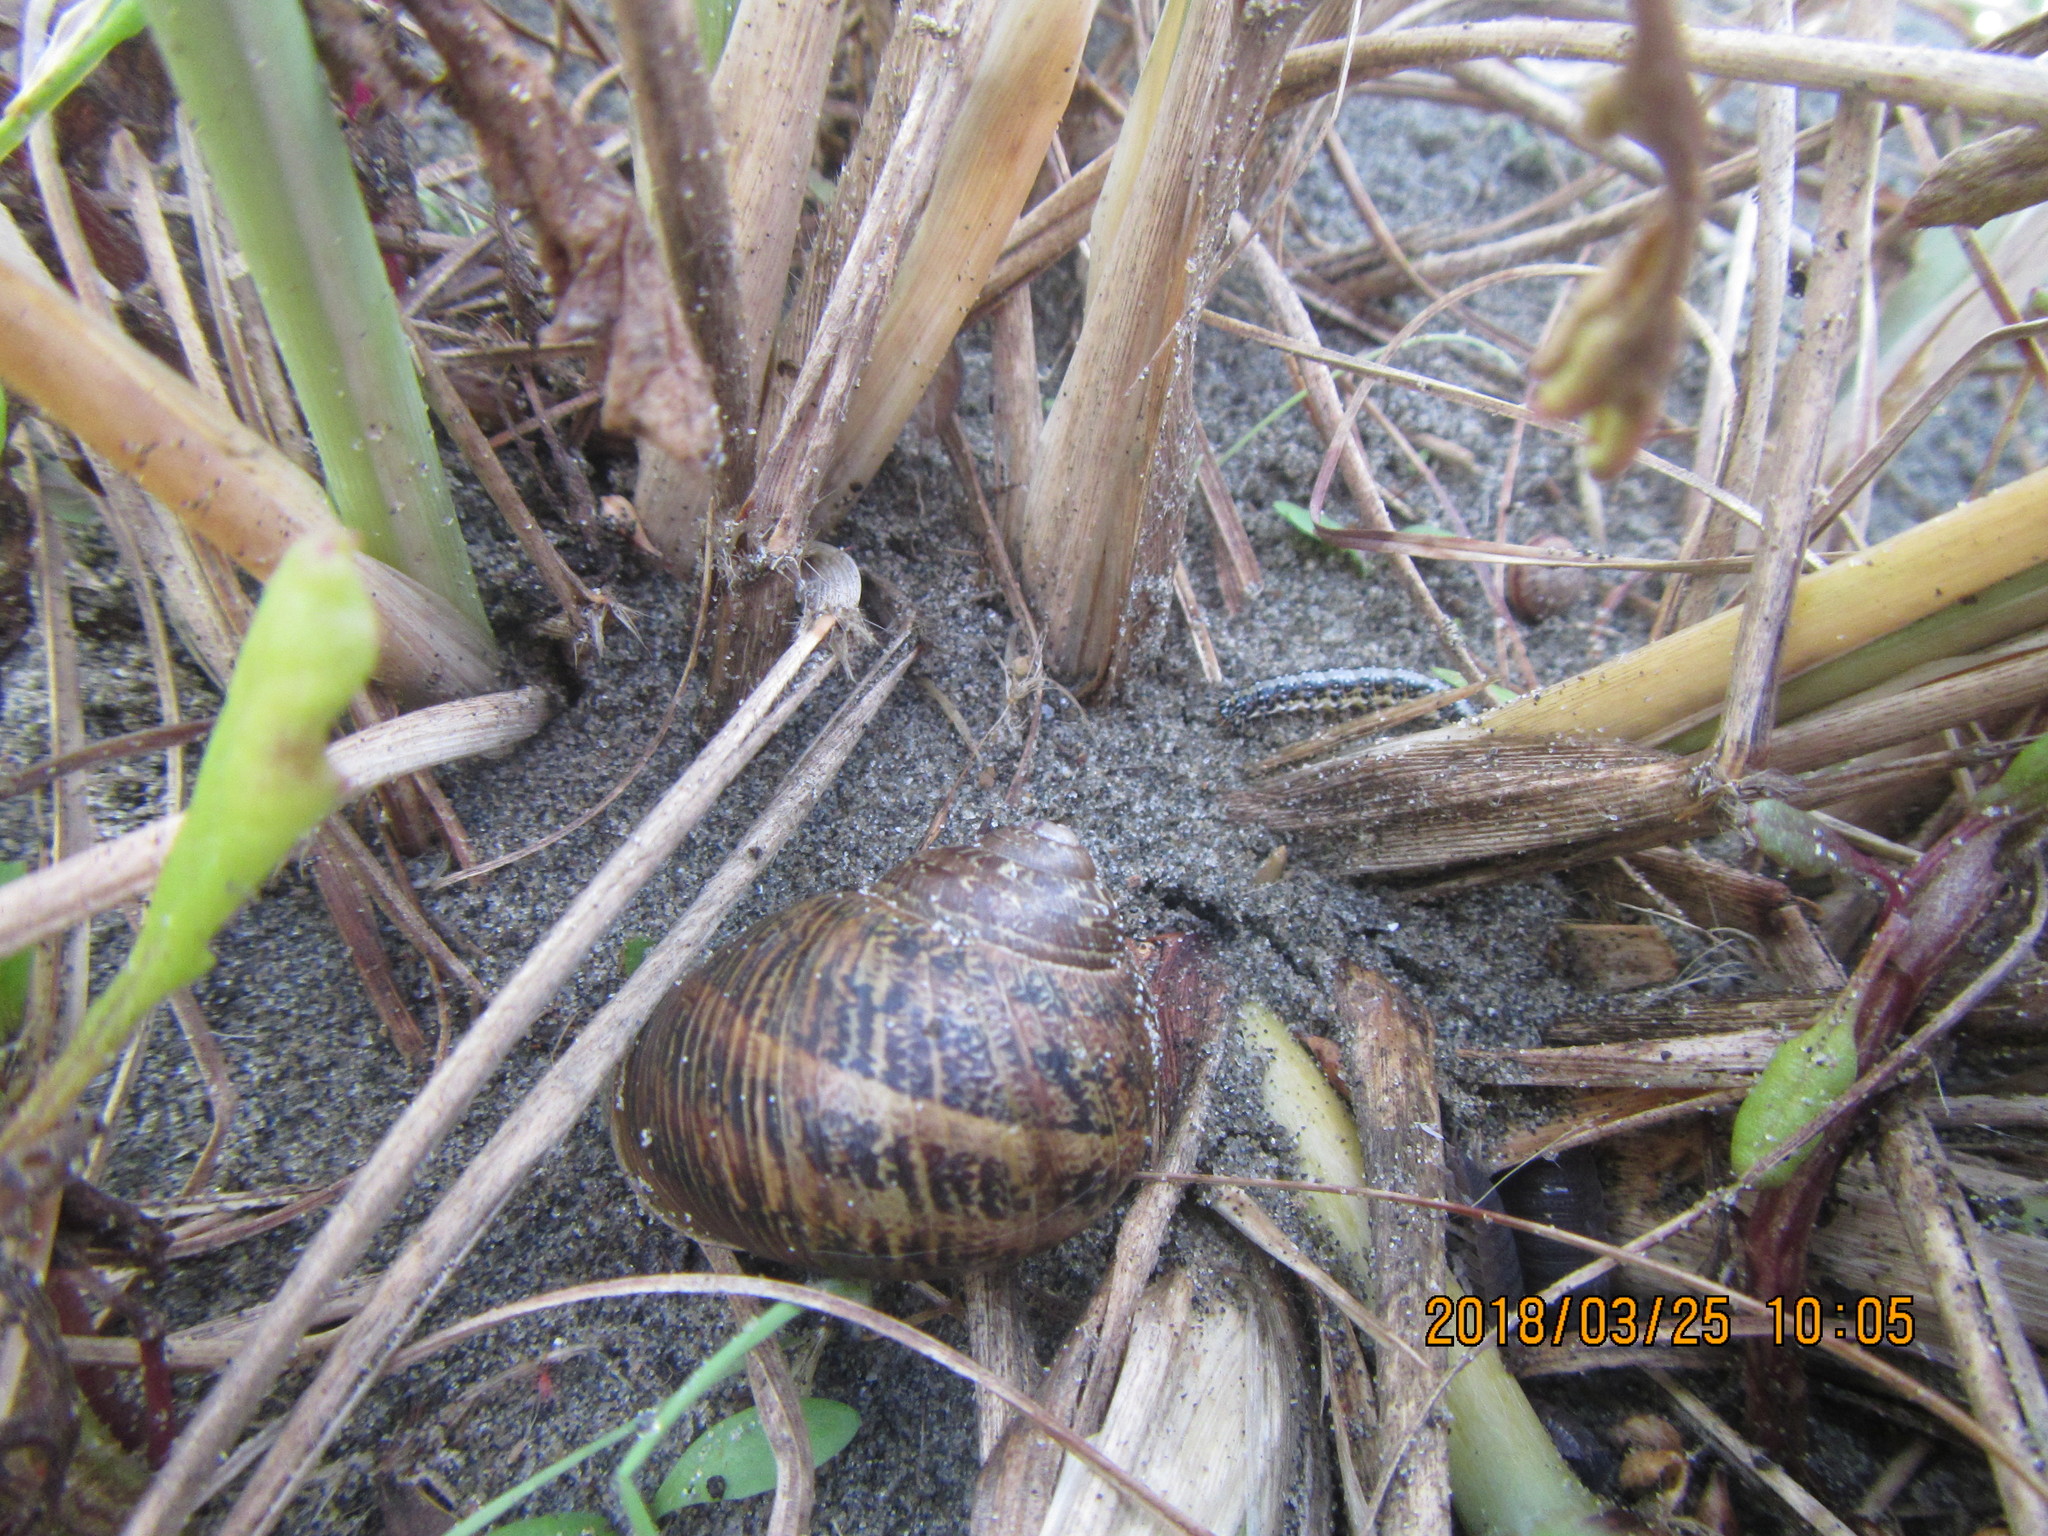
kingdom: Animalia
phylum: Mollusca
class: Gastropoda
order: Stylommatophora
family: Helicidae
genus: Cornu
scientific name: Cornu aspersum
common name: Brown garden snail
